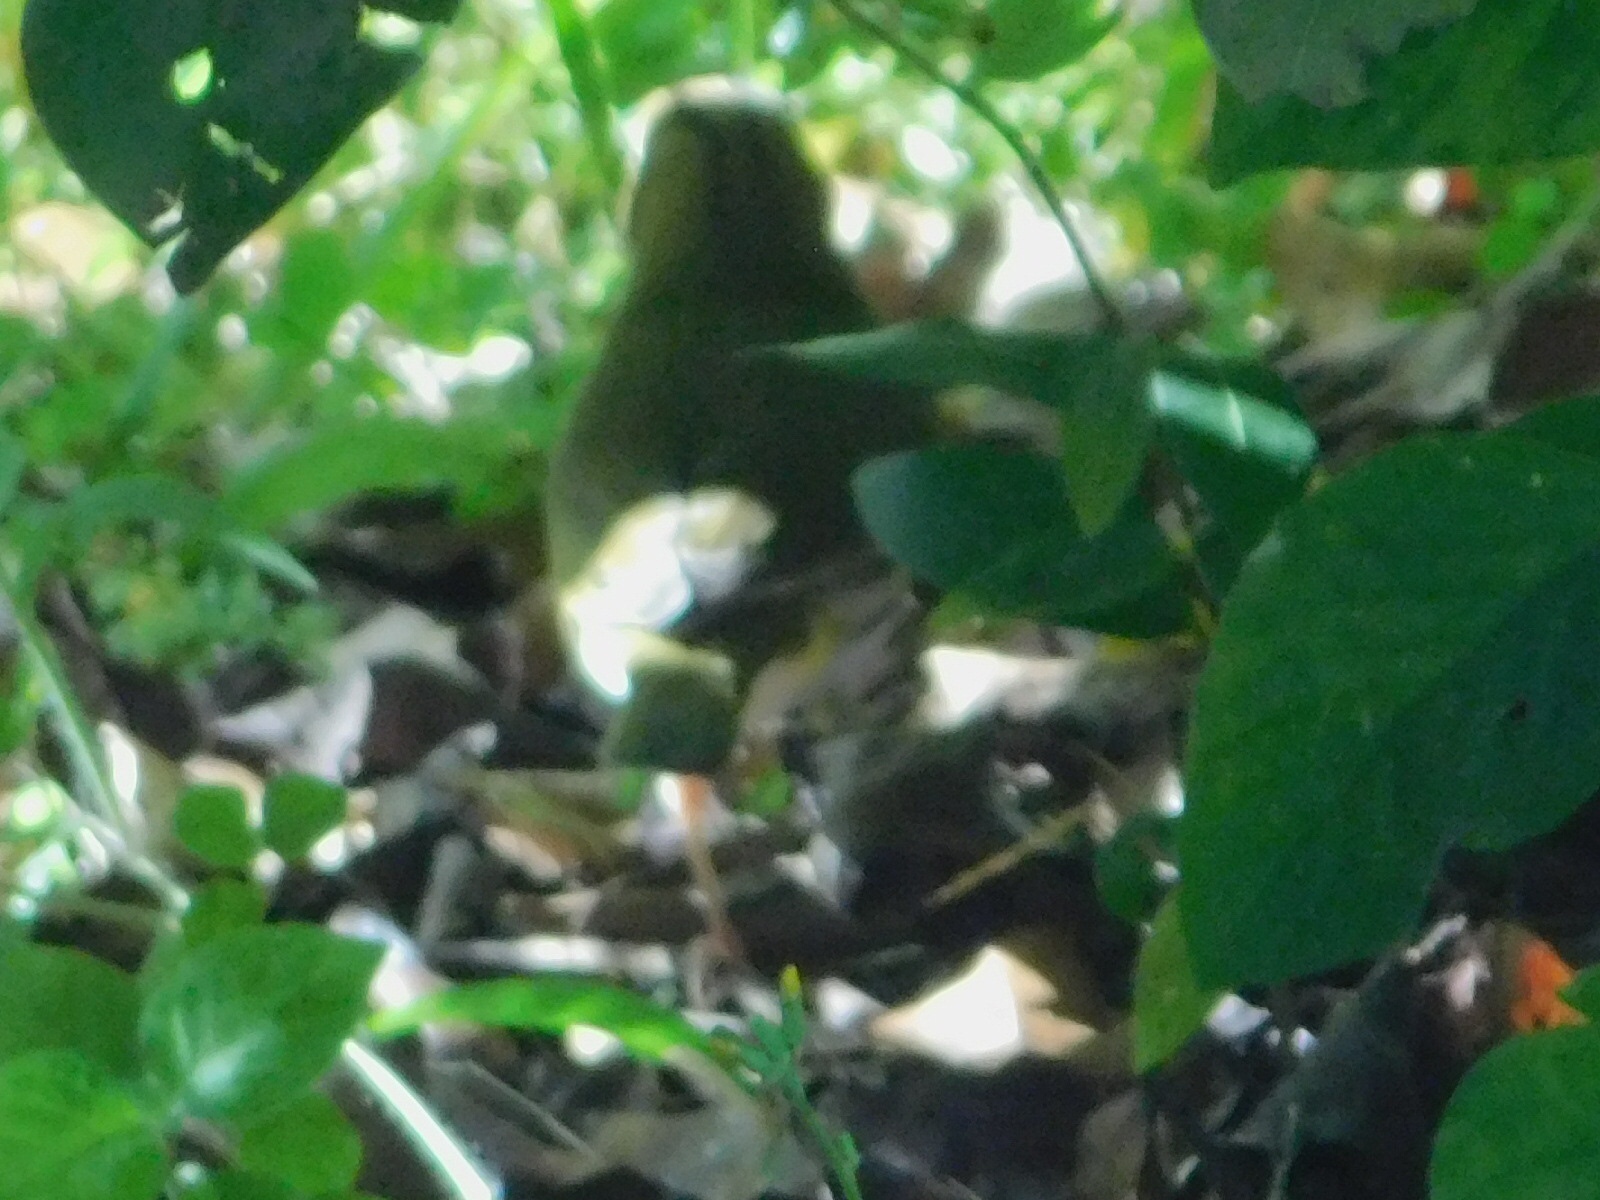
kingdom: Animalia
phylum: Chordata
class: Aves
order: Passeriformes
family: Parulidae
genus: Seiurus
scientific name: Seiurus aurocapilla
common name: Ovenbird
